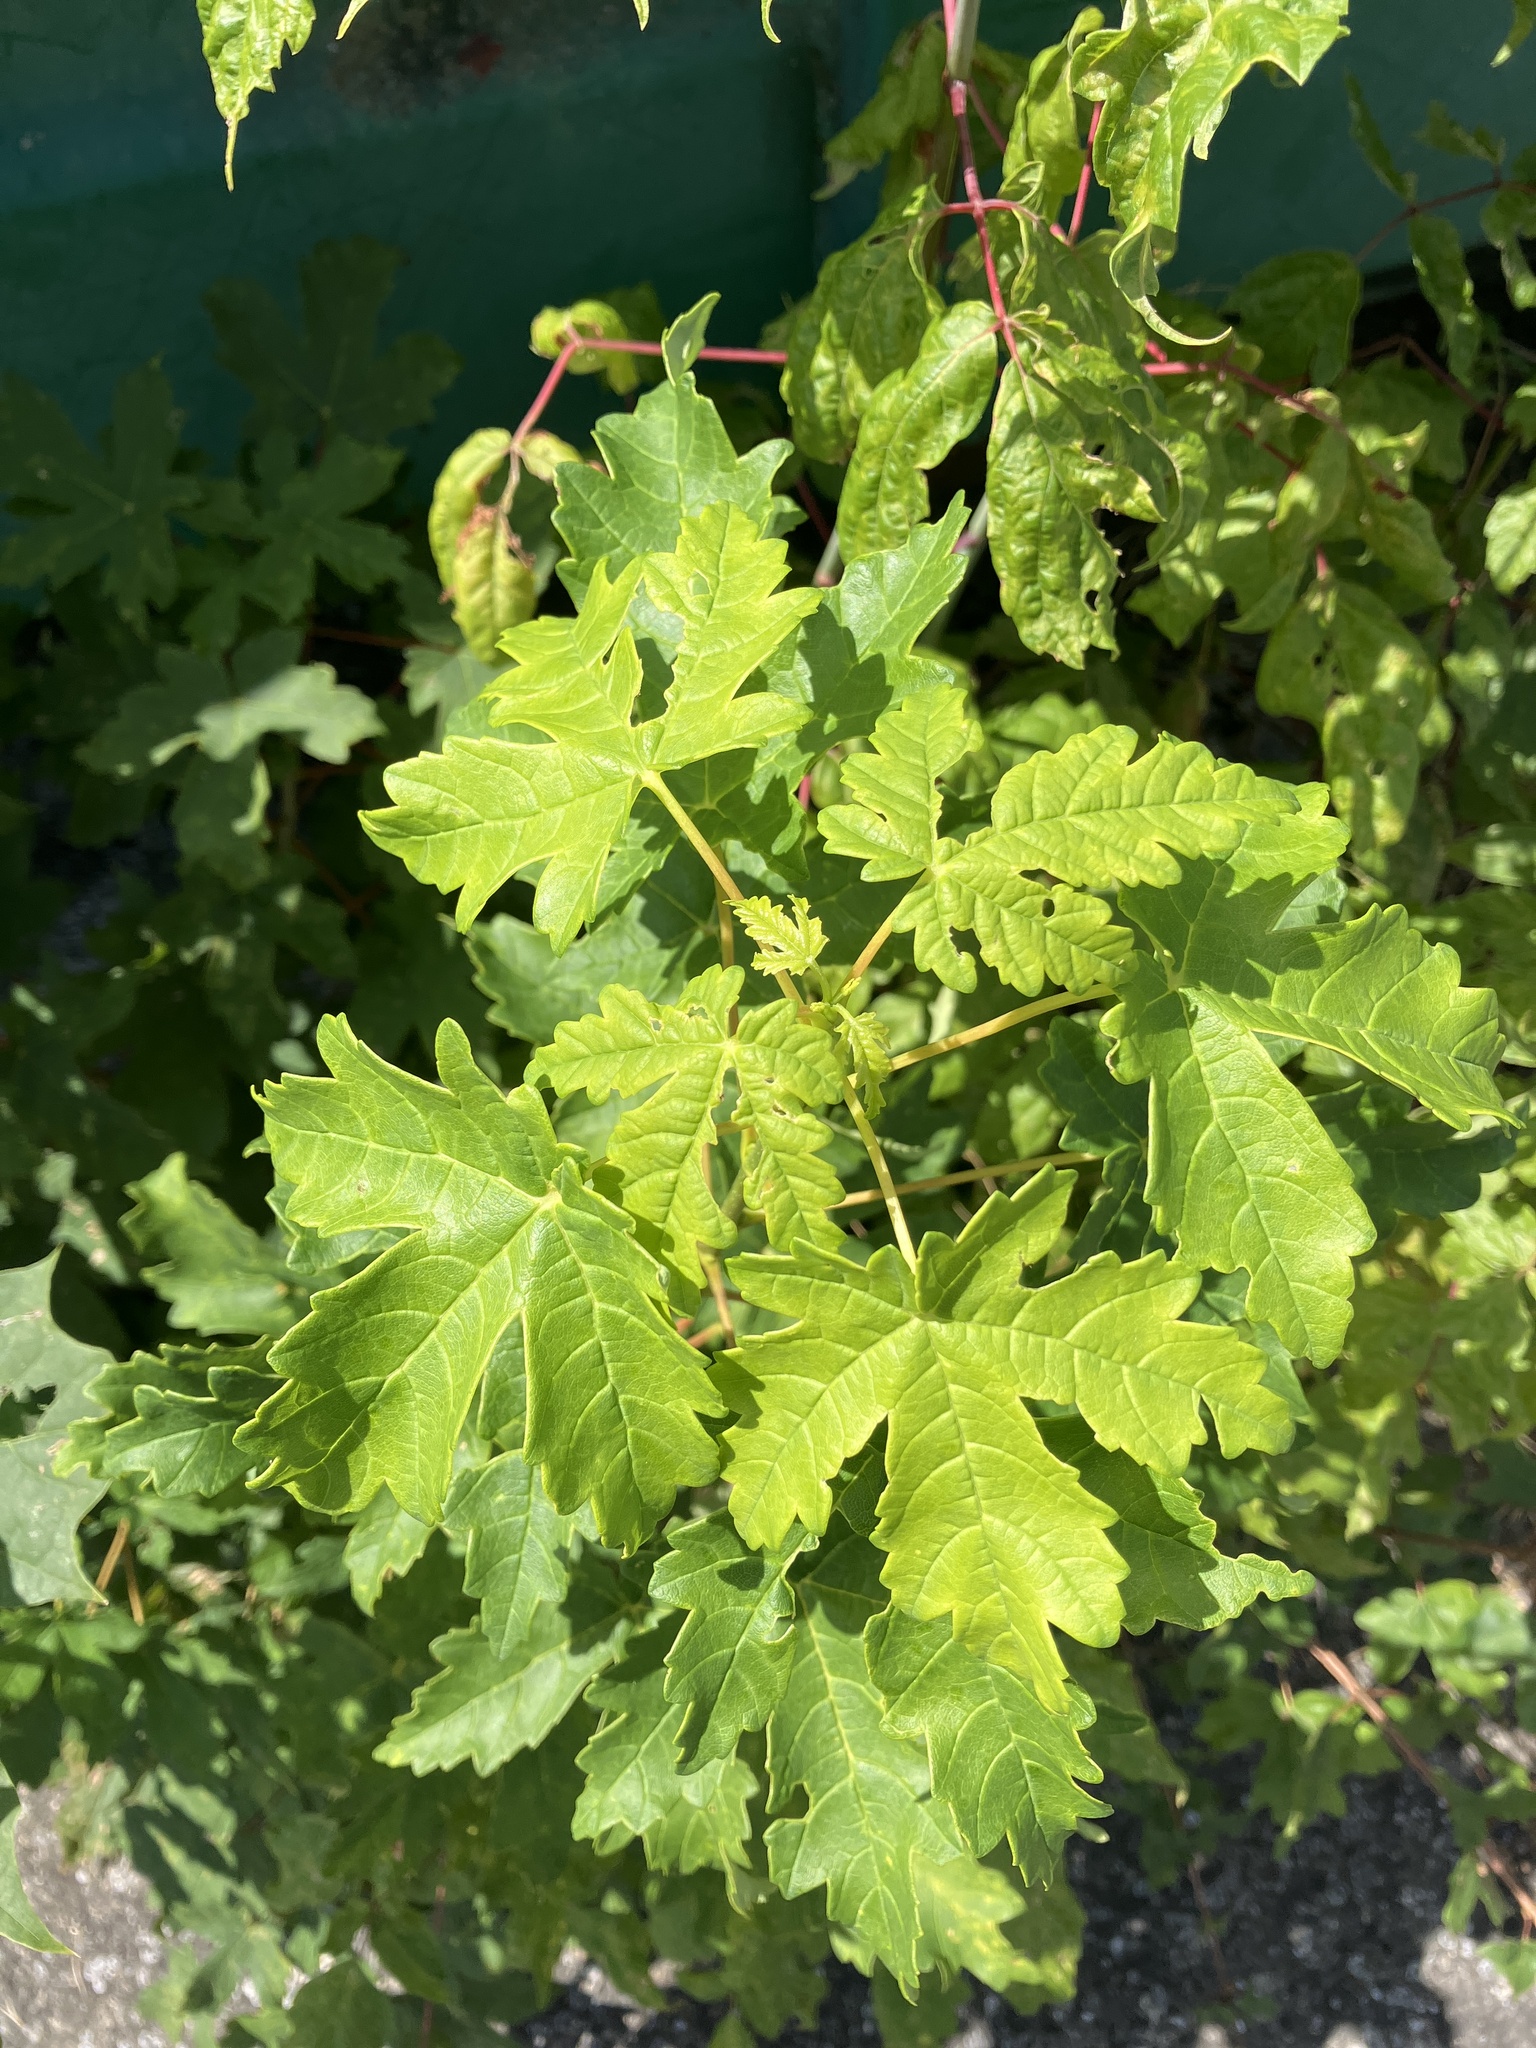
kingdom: Plantae
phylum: Tracheophyta
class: Magnoliopsida
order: Sapindales
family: Sapindaceae
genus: Acer
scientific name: Acer pseudoplatanus
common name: Sycamore
